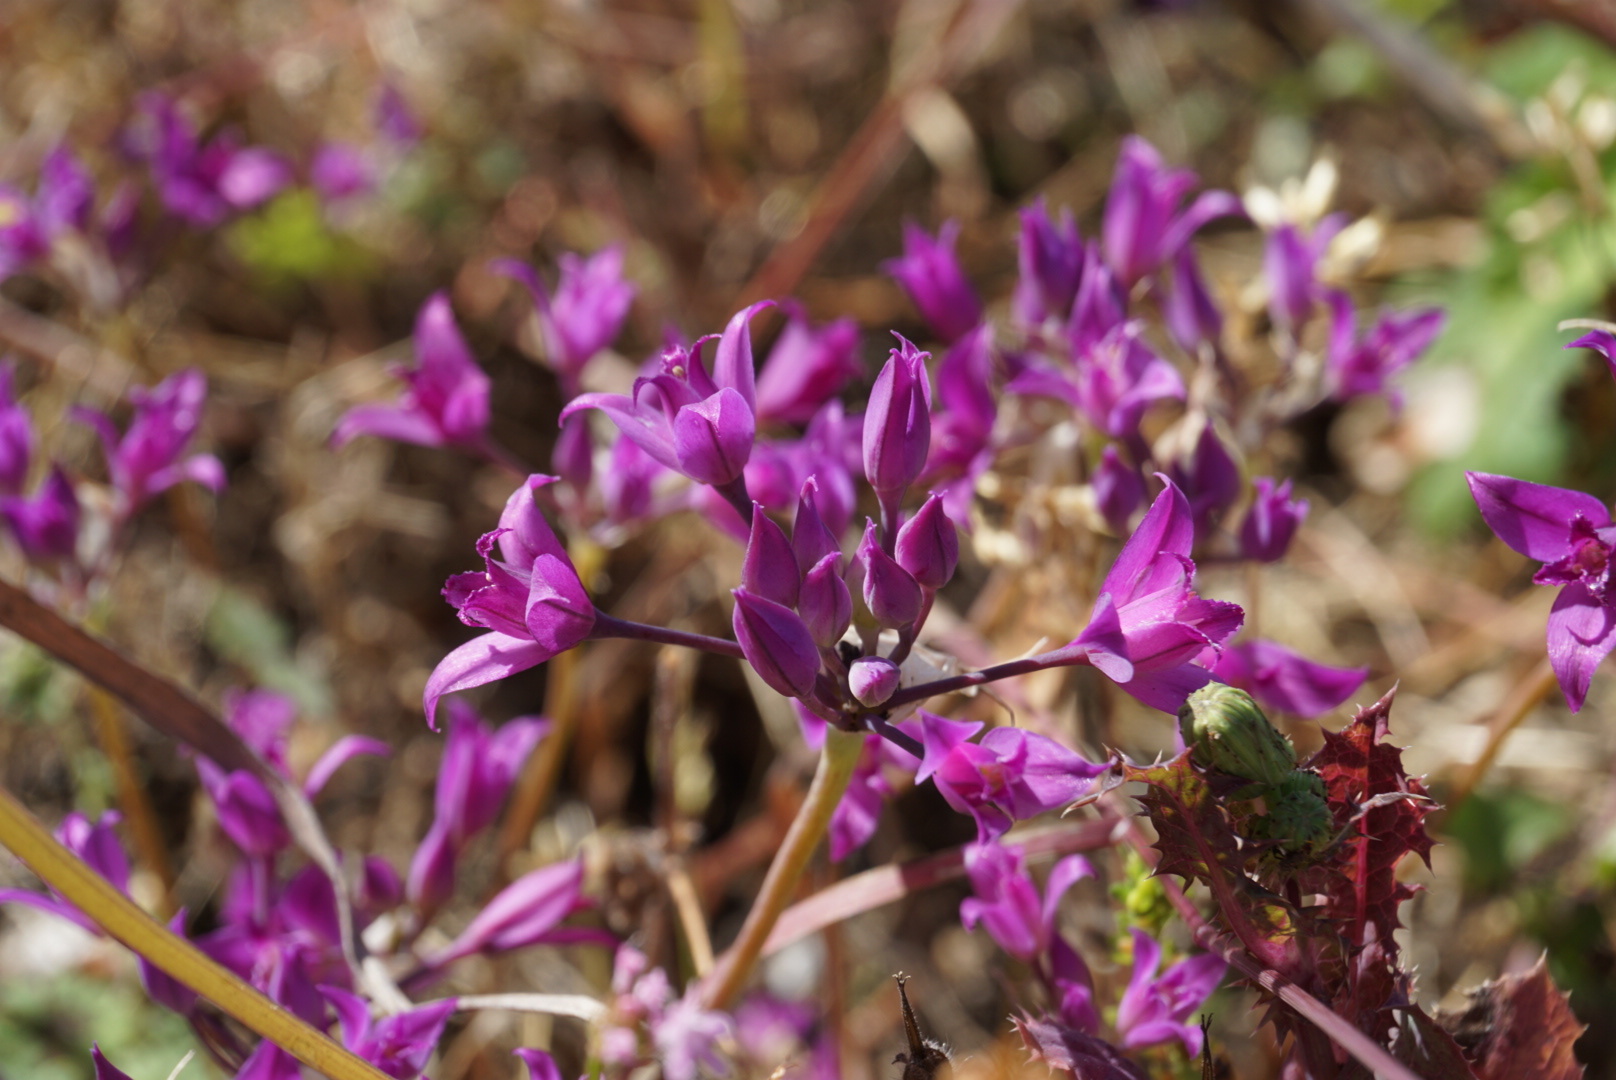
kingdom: Plantae
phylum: Tracheophyta
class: Liliopsida
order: Asparagales
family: Amaryllidaceae
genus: Allium
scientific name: Allium acuminatum
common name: Hooker's onion
